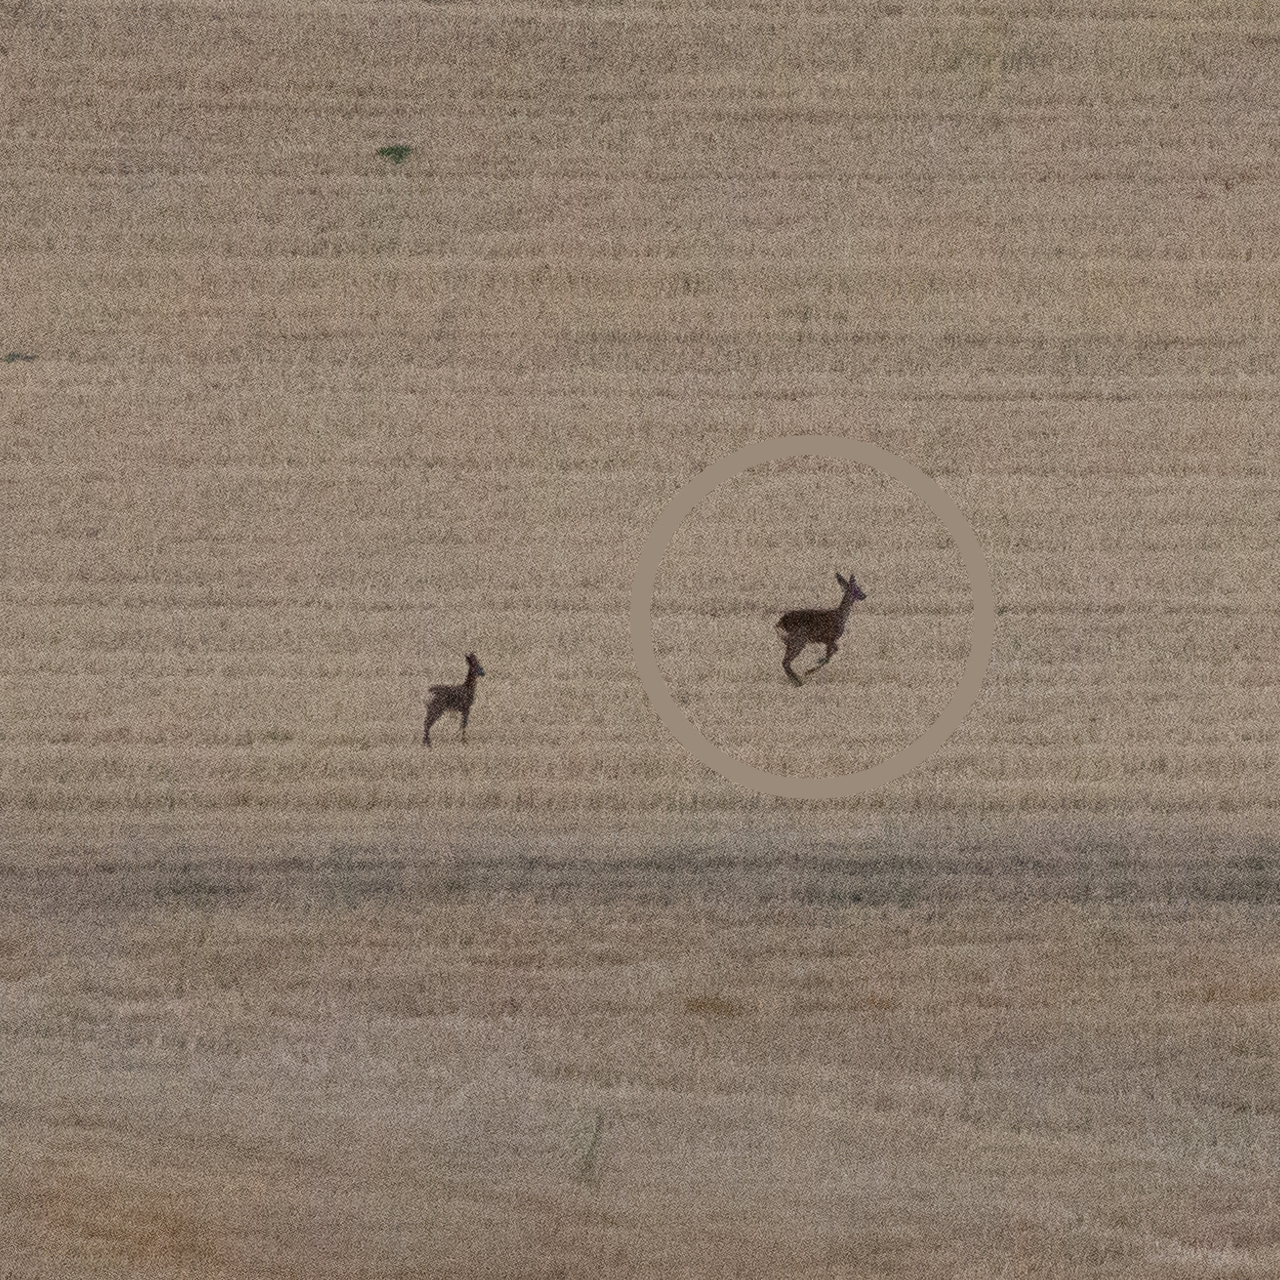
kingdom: Animalia
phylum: Chordata
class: Mammalia
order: Artiodactyla
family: Cervidae
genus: Capreolus
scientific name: Capreolus capreolus
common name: Western roe deer
